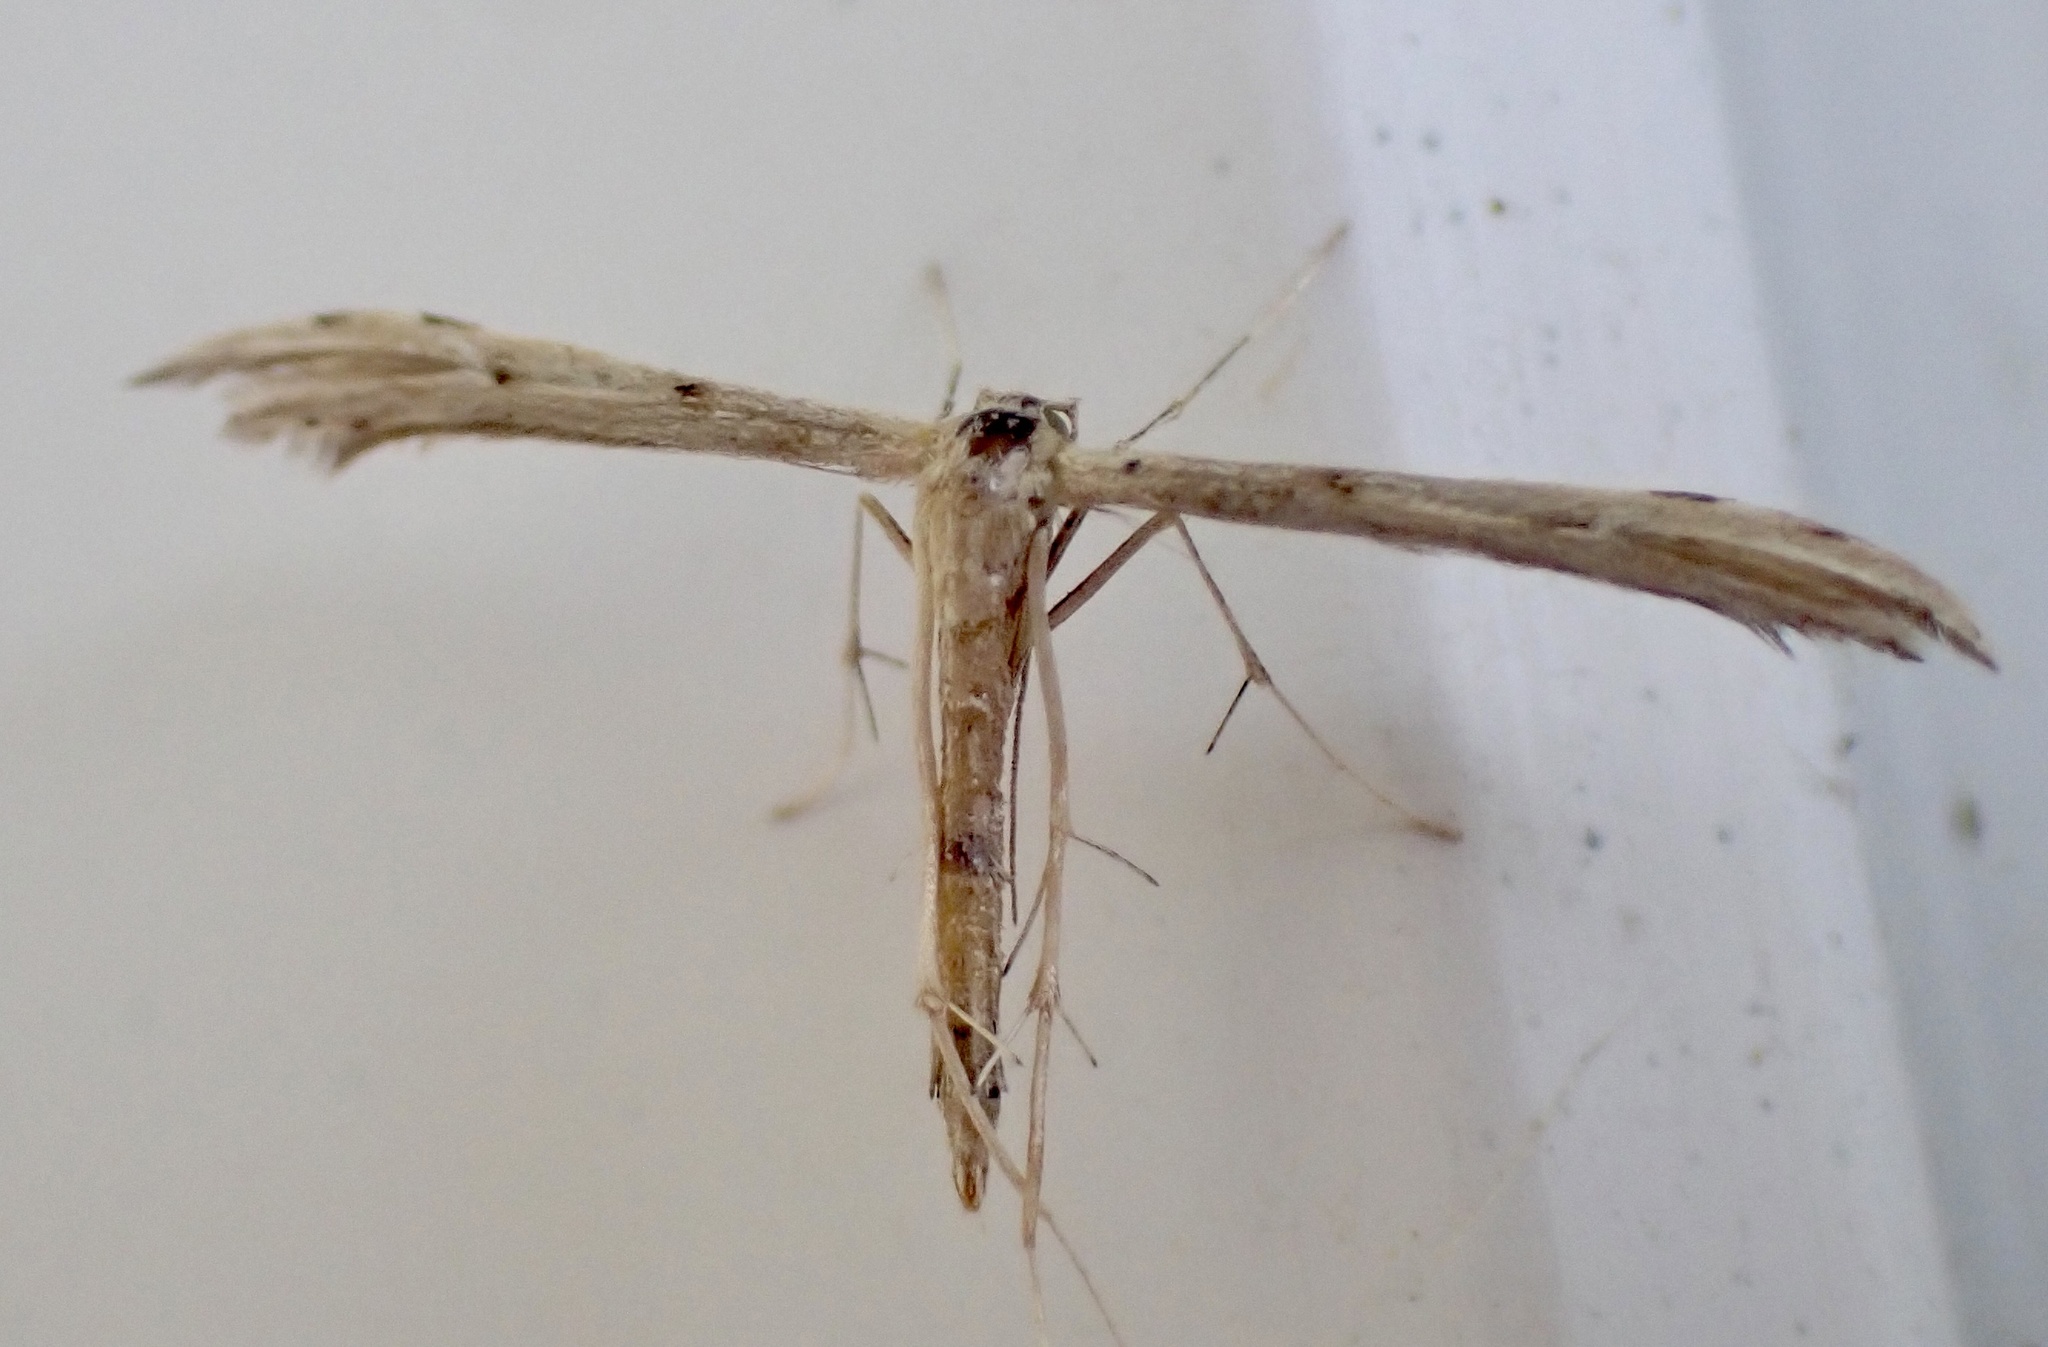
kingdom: Animalia
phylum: Arthropoda
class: Insecta
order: Lepidoptera
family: Pterophoridae
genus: Pselnophorus
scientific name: Pselnophorus belfragei
